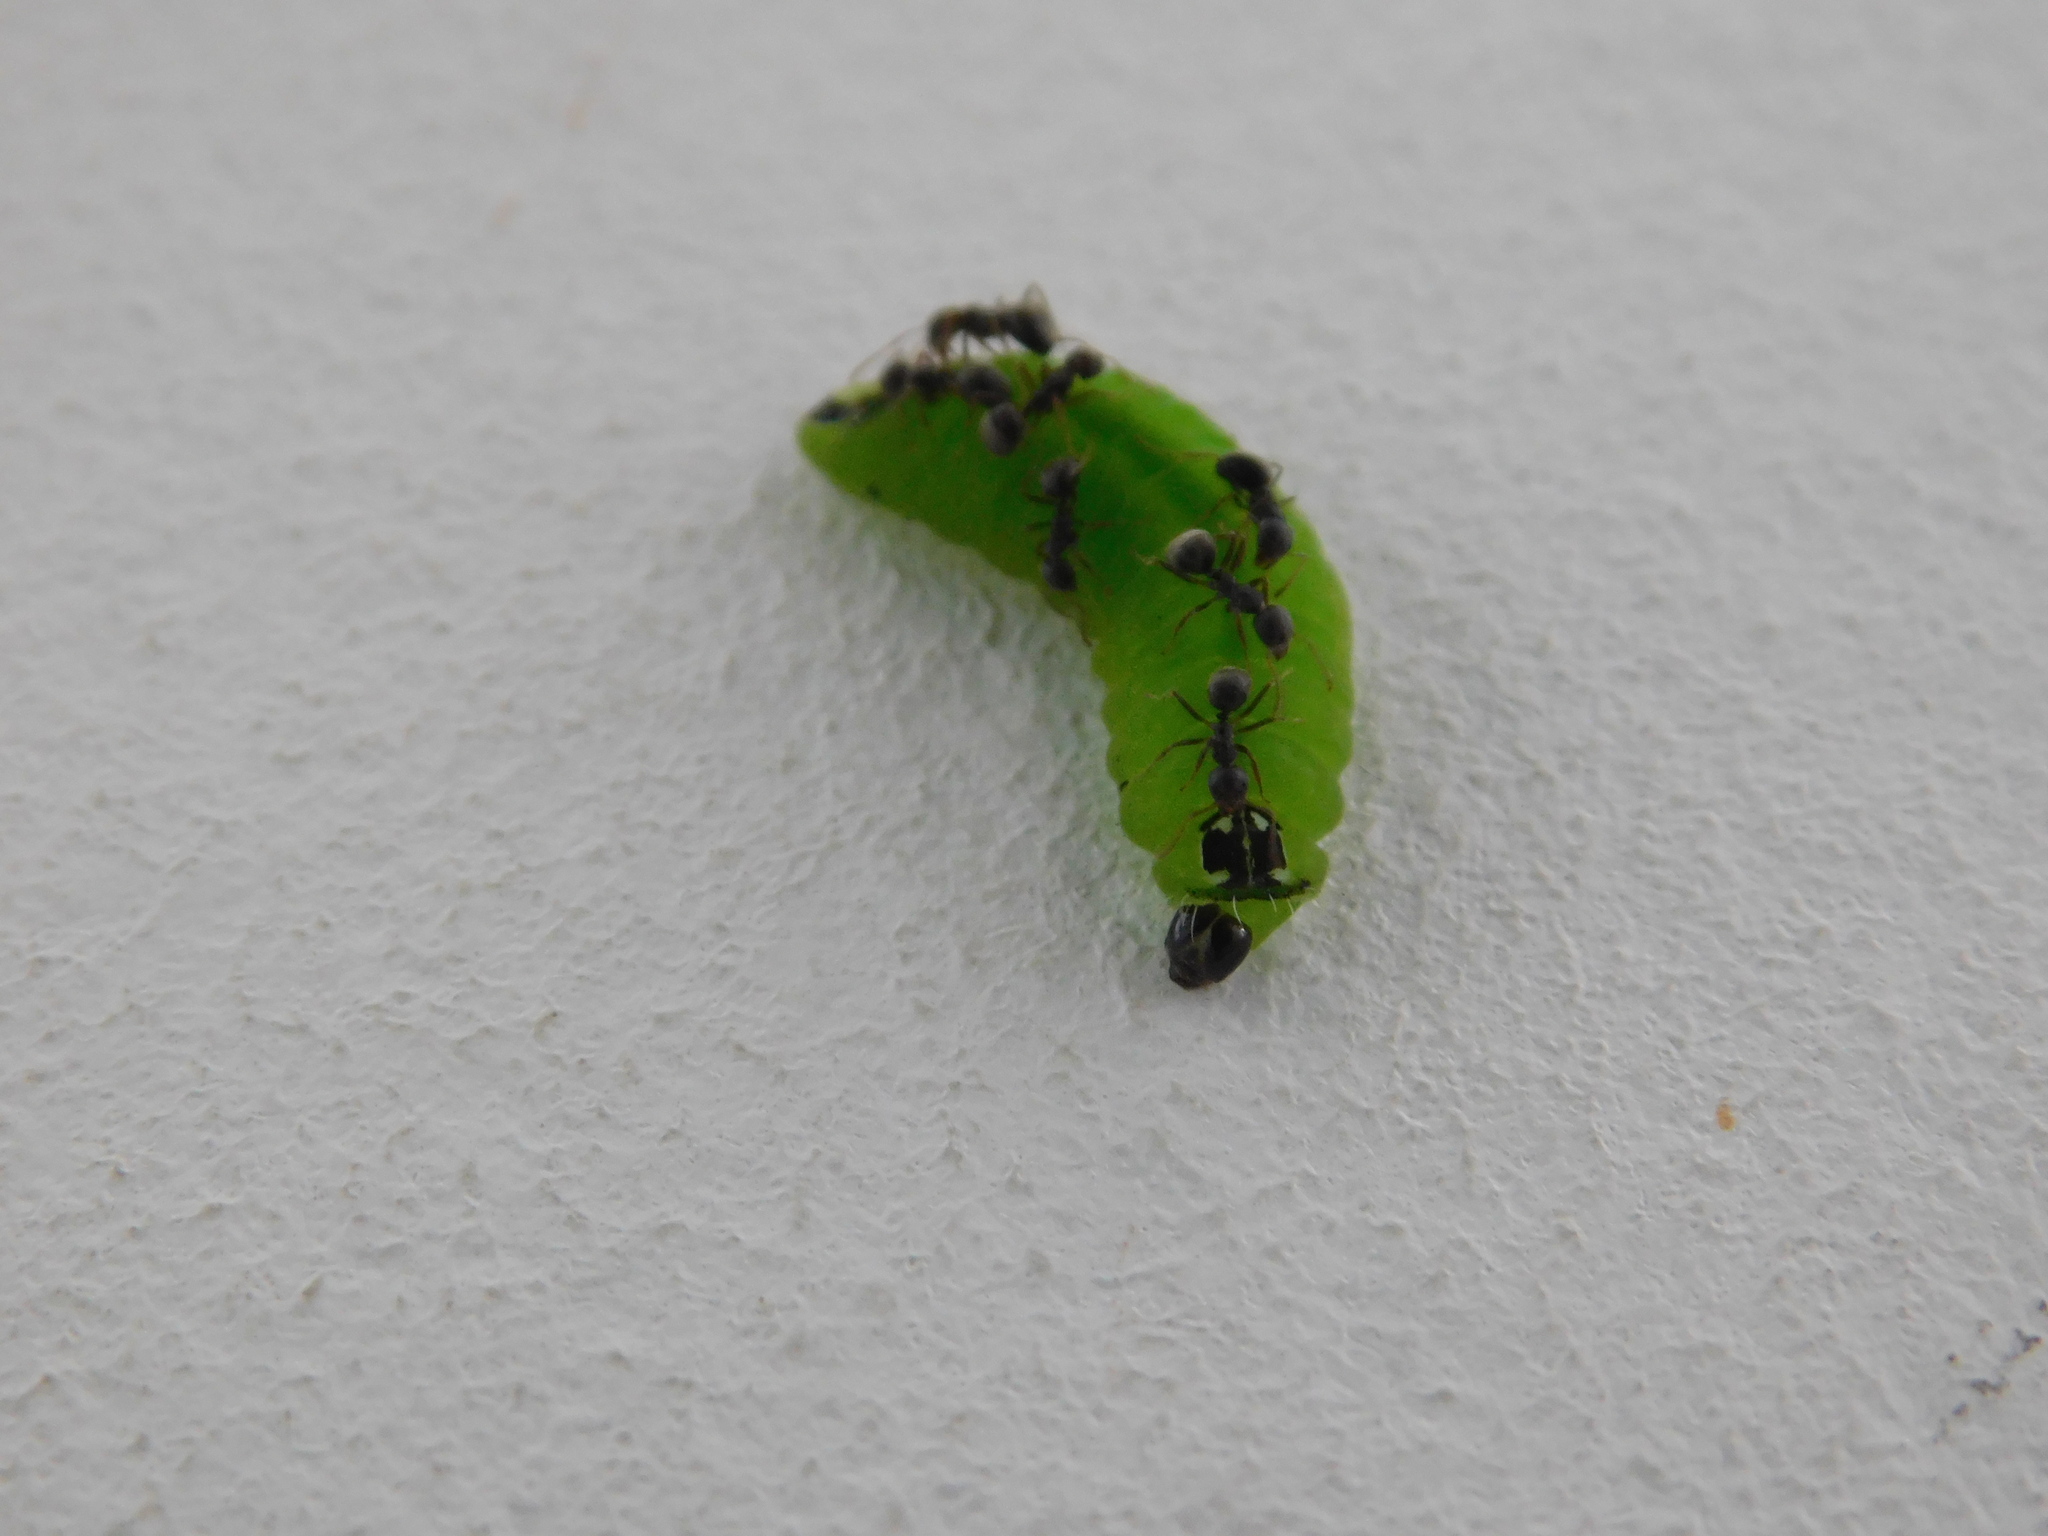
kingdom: Animalia
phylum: Arthropoda
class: Insecta
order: Lepidoptera
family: Lycaenidae
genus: Flos
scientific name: Flos apidanus
